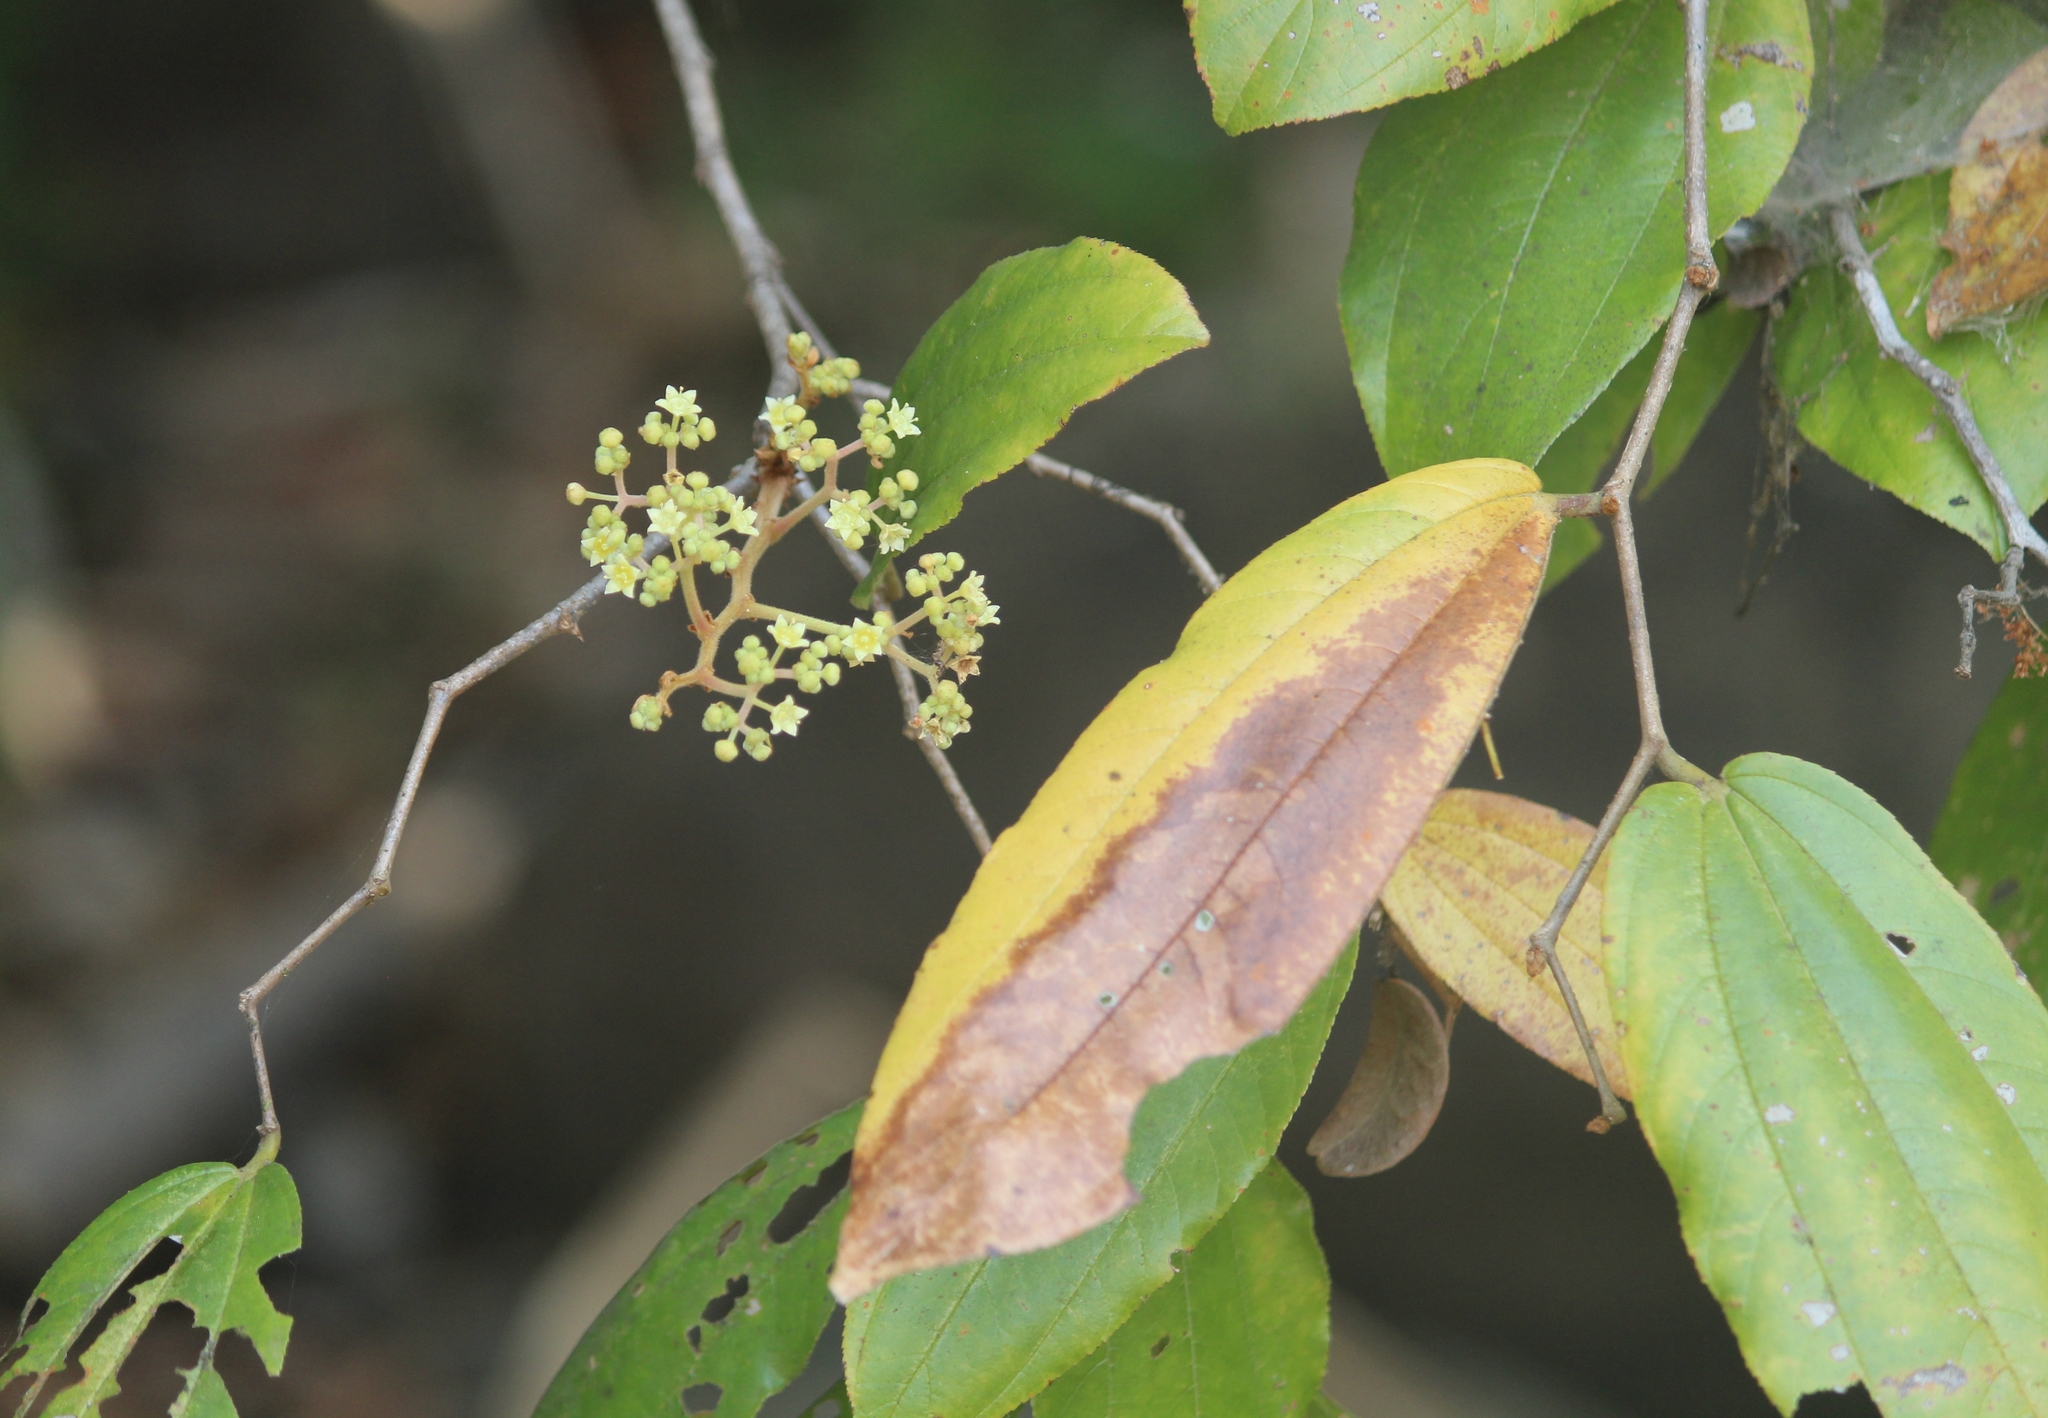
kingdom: Plantae
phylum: Tracheophyta
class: Magnoliopsida
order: Rosales
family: Rhamnaceae
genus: Ziziphus
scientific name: Ziziphus rugosa
